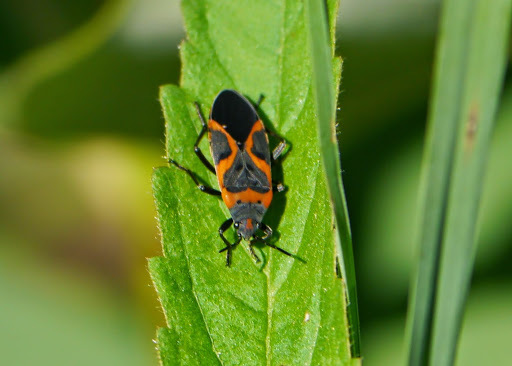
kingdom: Animalia
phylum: Arthropoda
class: Insecta
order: Hemiptera
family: Lygaeidae
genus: Lygaeus
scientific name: Lygaeus kalmii
